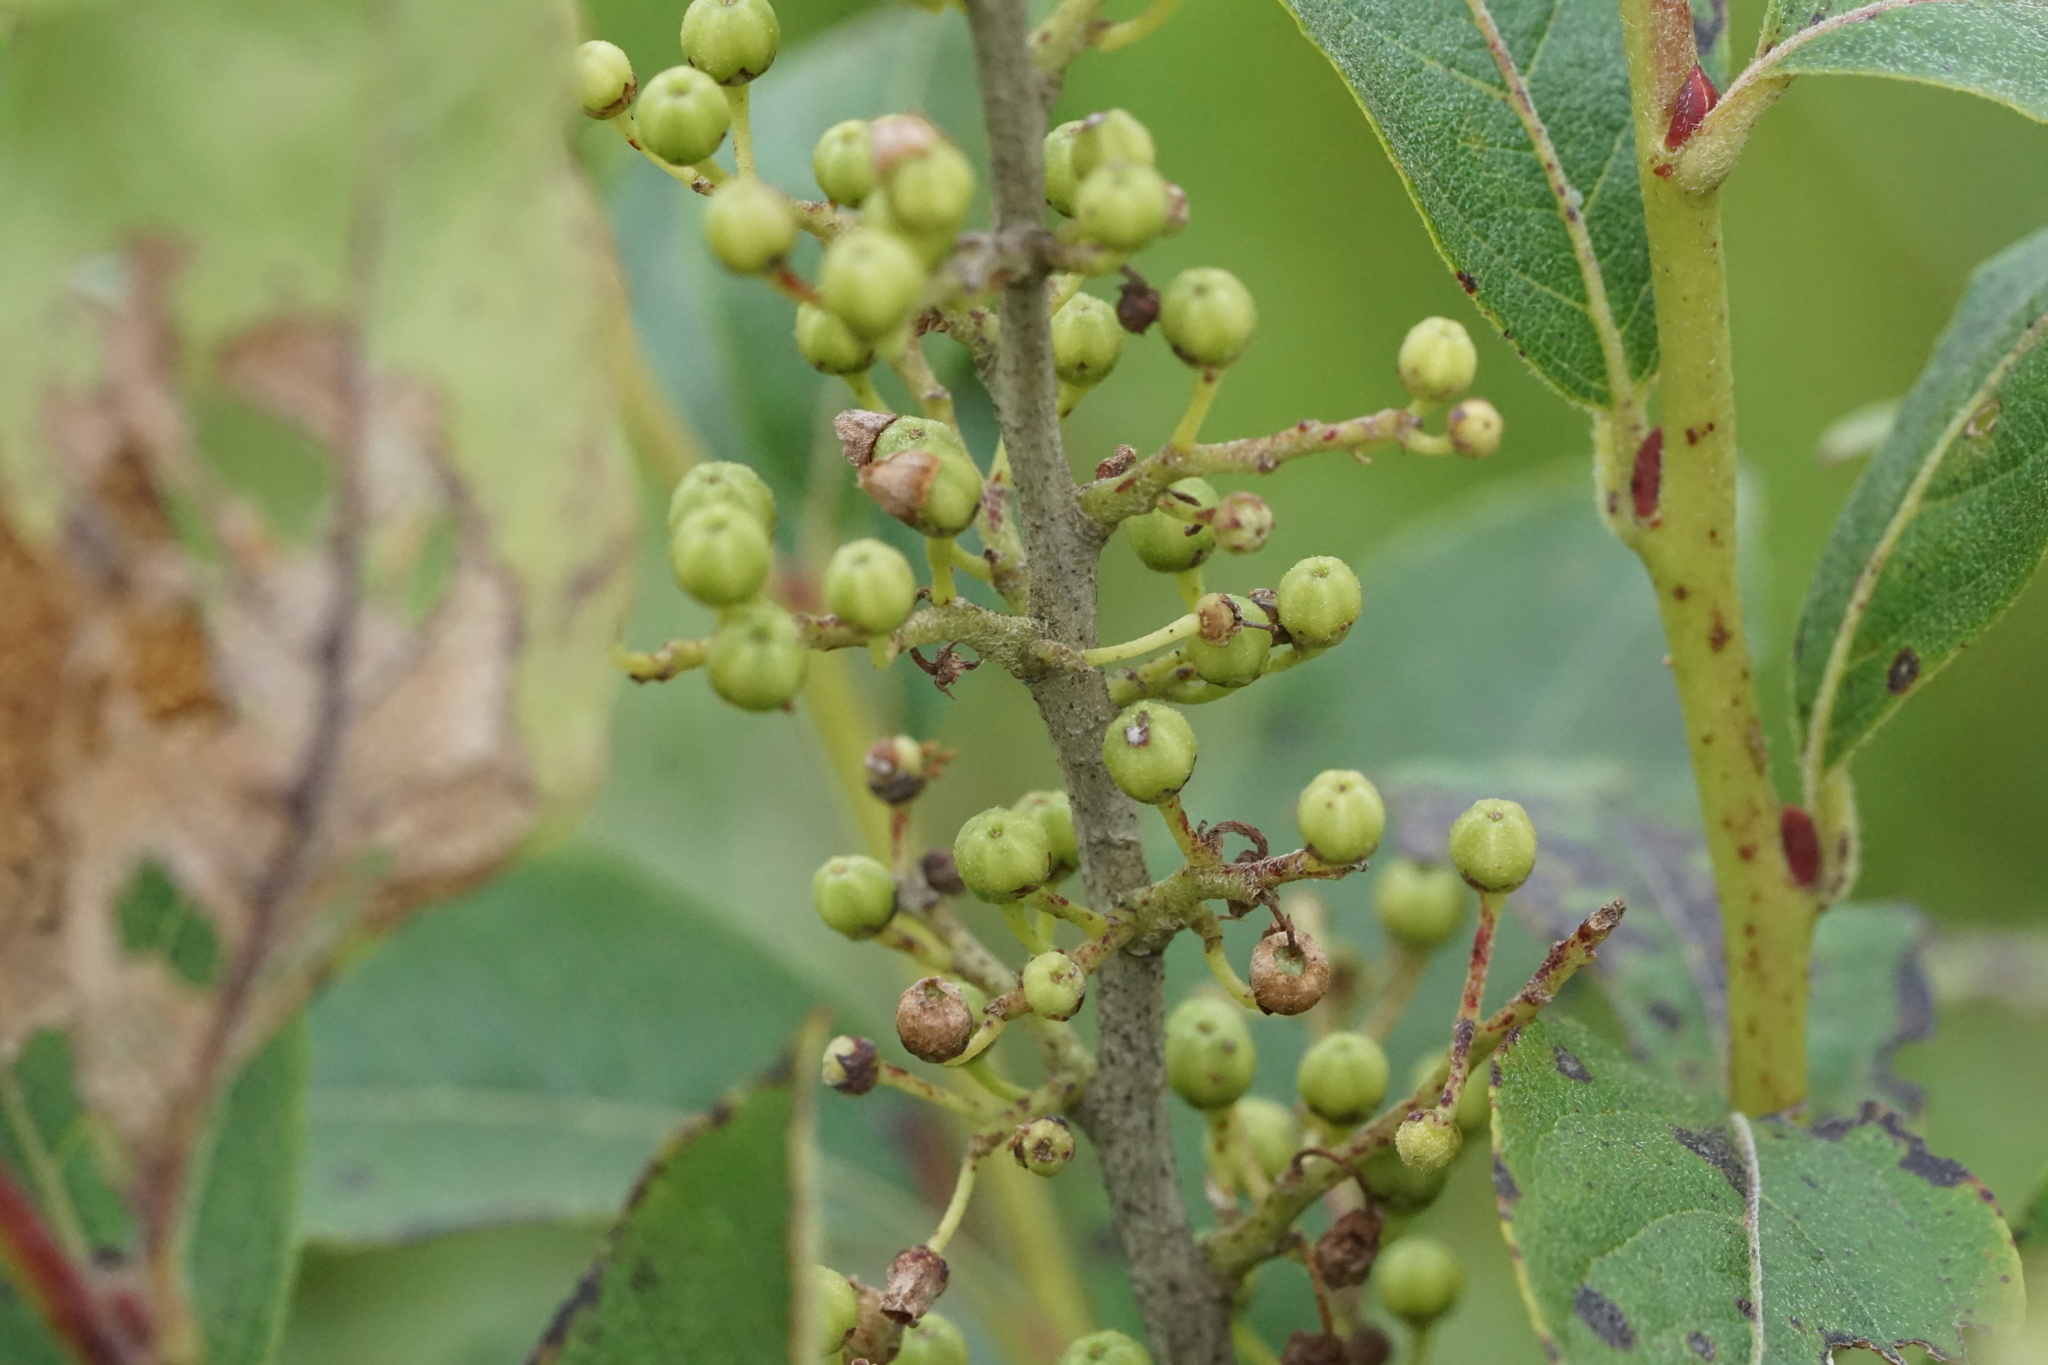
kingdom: Plantae
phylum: Tracheophyta
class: Magnoliopsida
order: Ericales
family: Ericaceae
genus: Lyonia
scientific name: Lyonia ligustrina
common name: Maleberry
